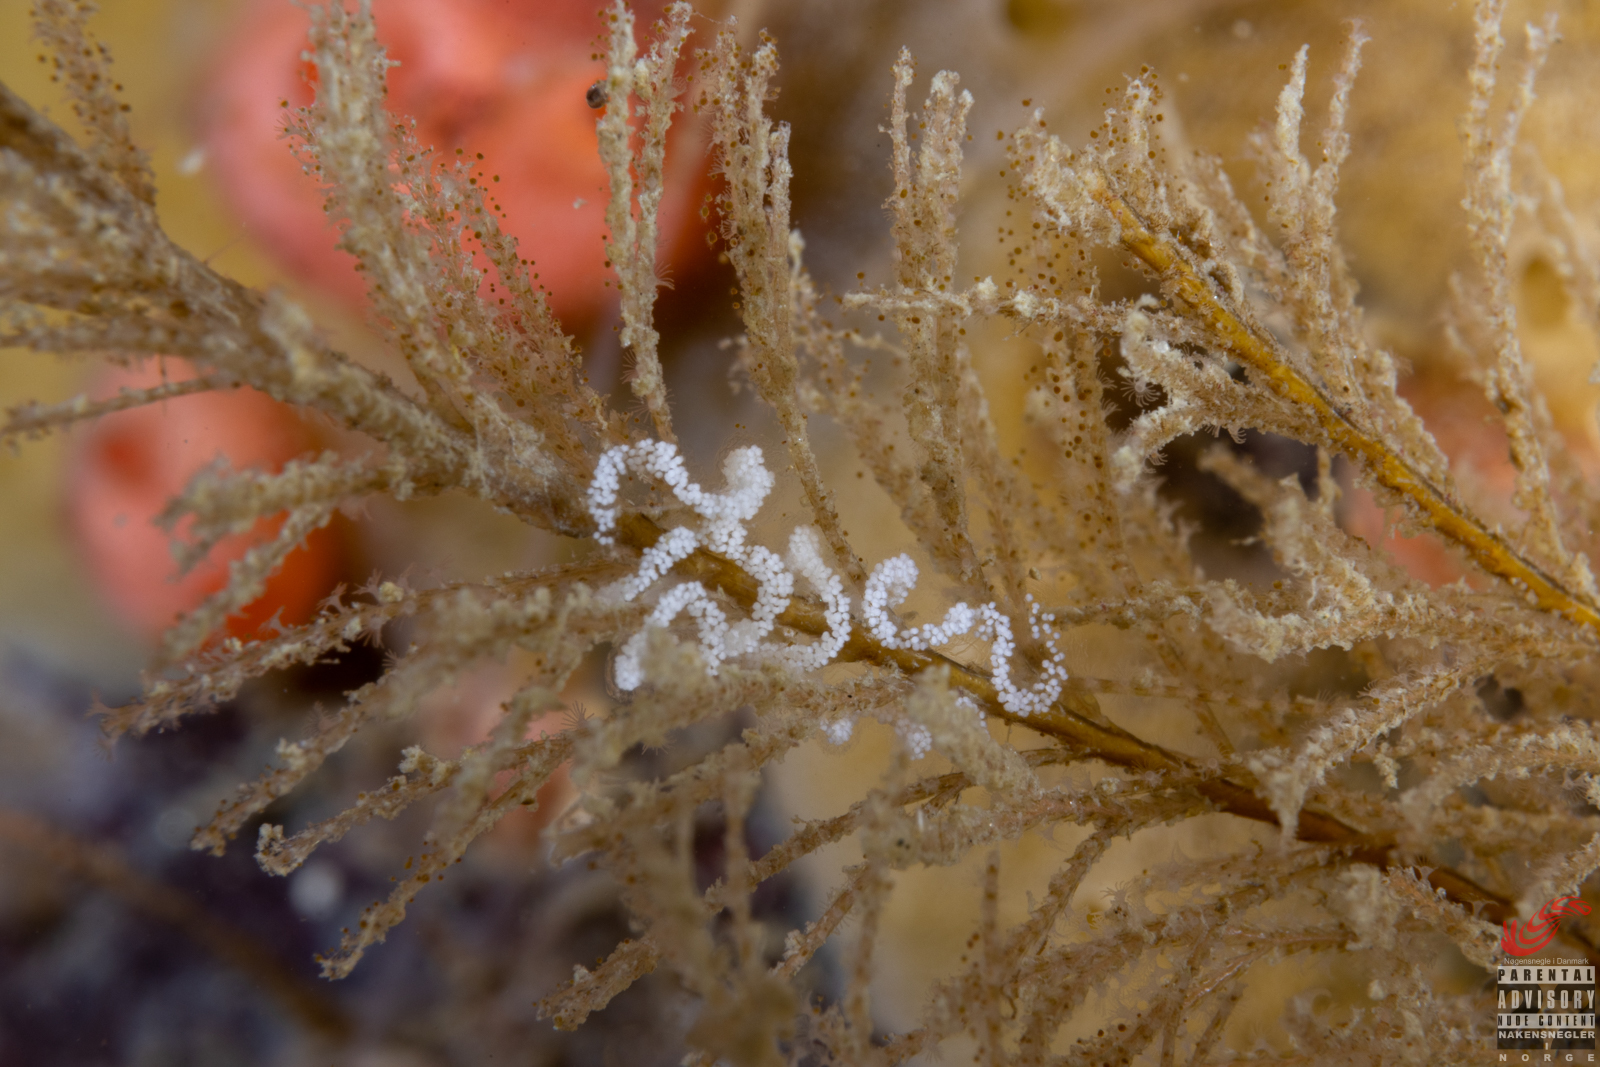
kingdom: Animalia
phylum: Mollusca
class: Gastropoda
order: Nudibranchia
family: Cuthonellidae
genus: Cuthonella
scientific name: Cuthonella concinna
